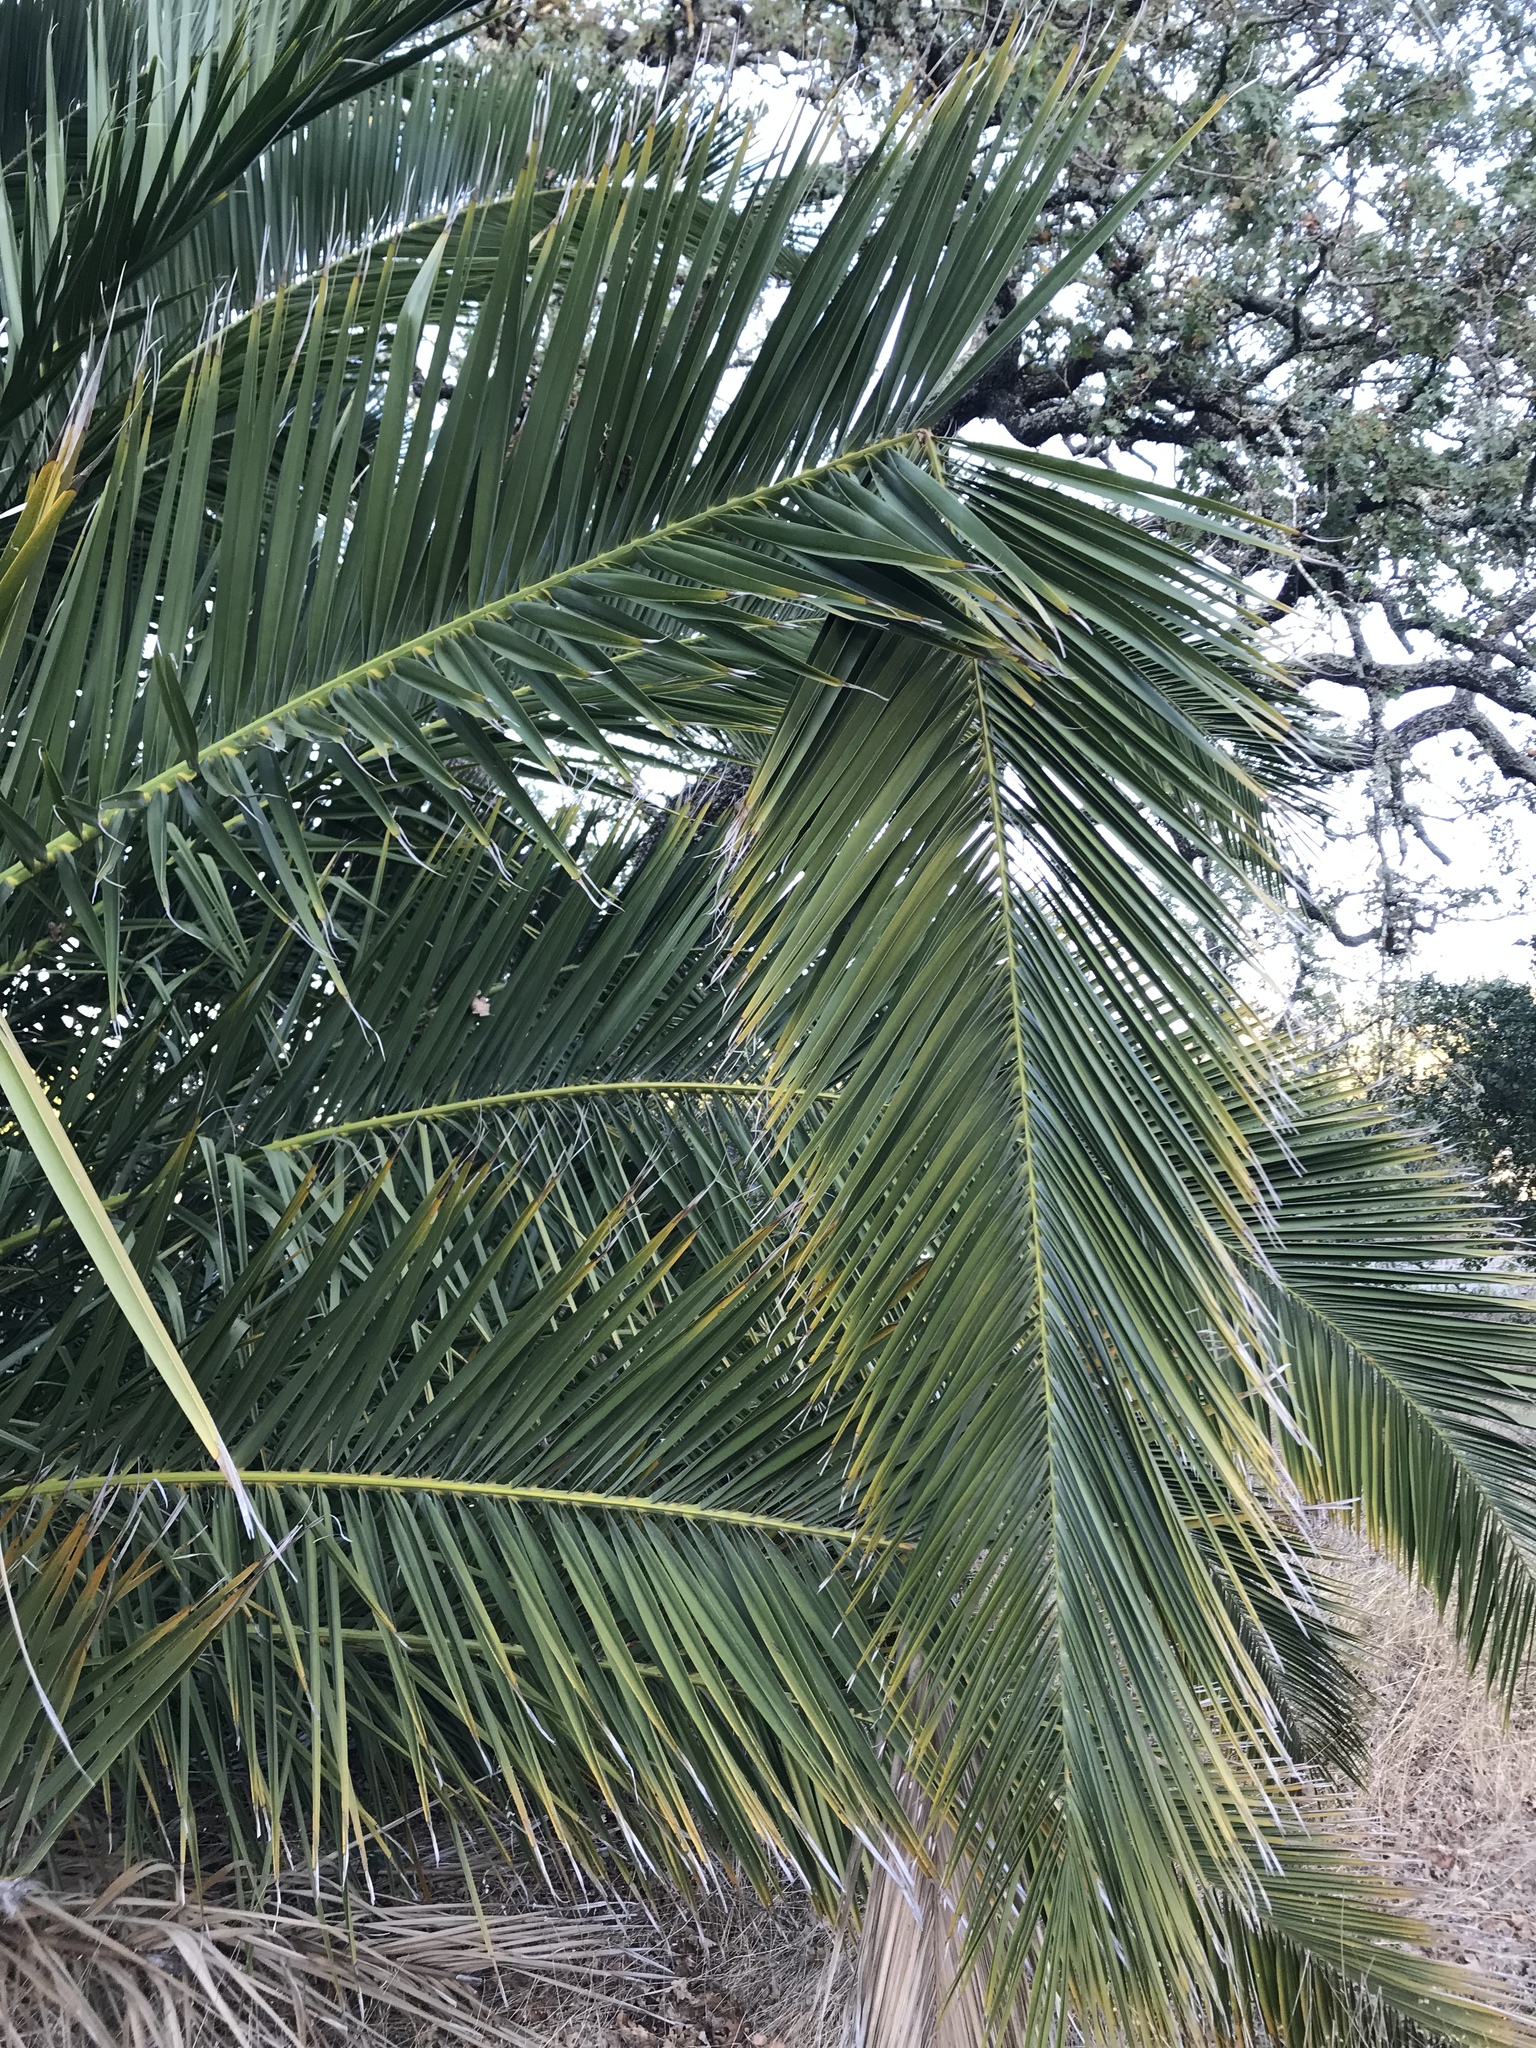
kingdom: Plantae
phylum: Tracheophyta
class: Liliopsida
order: Arecales
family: Arecaceae
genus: Phoenix
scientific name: Phoenix canariensis
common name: Canary island date palm
